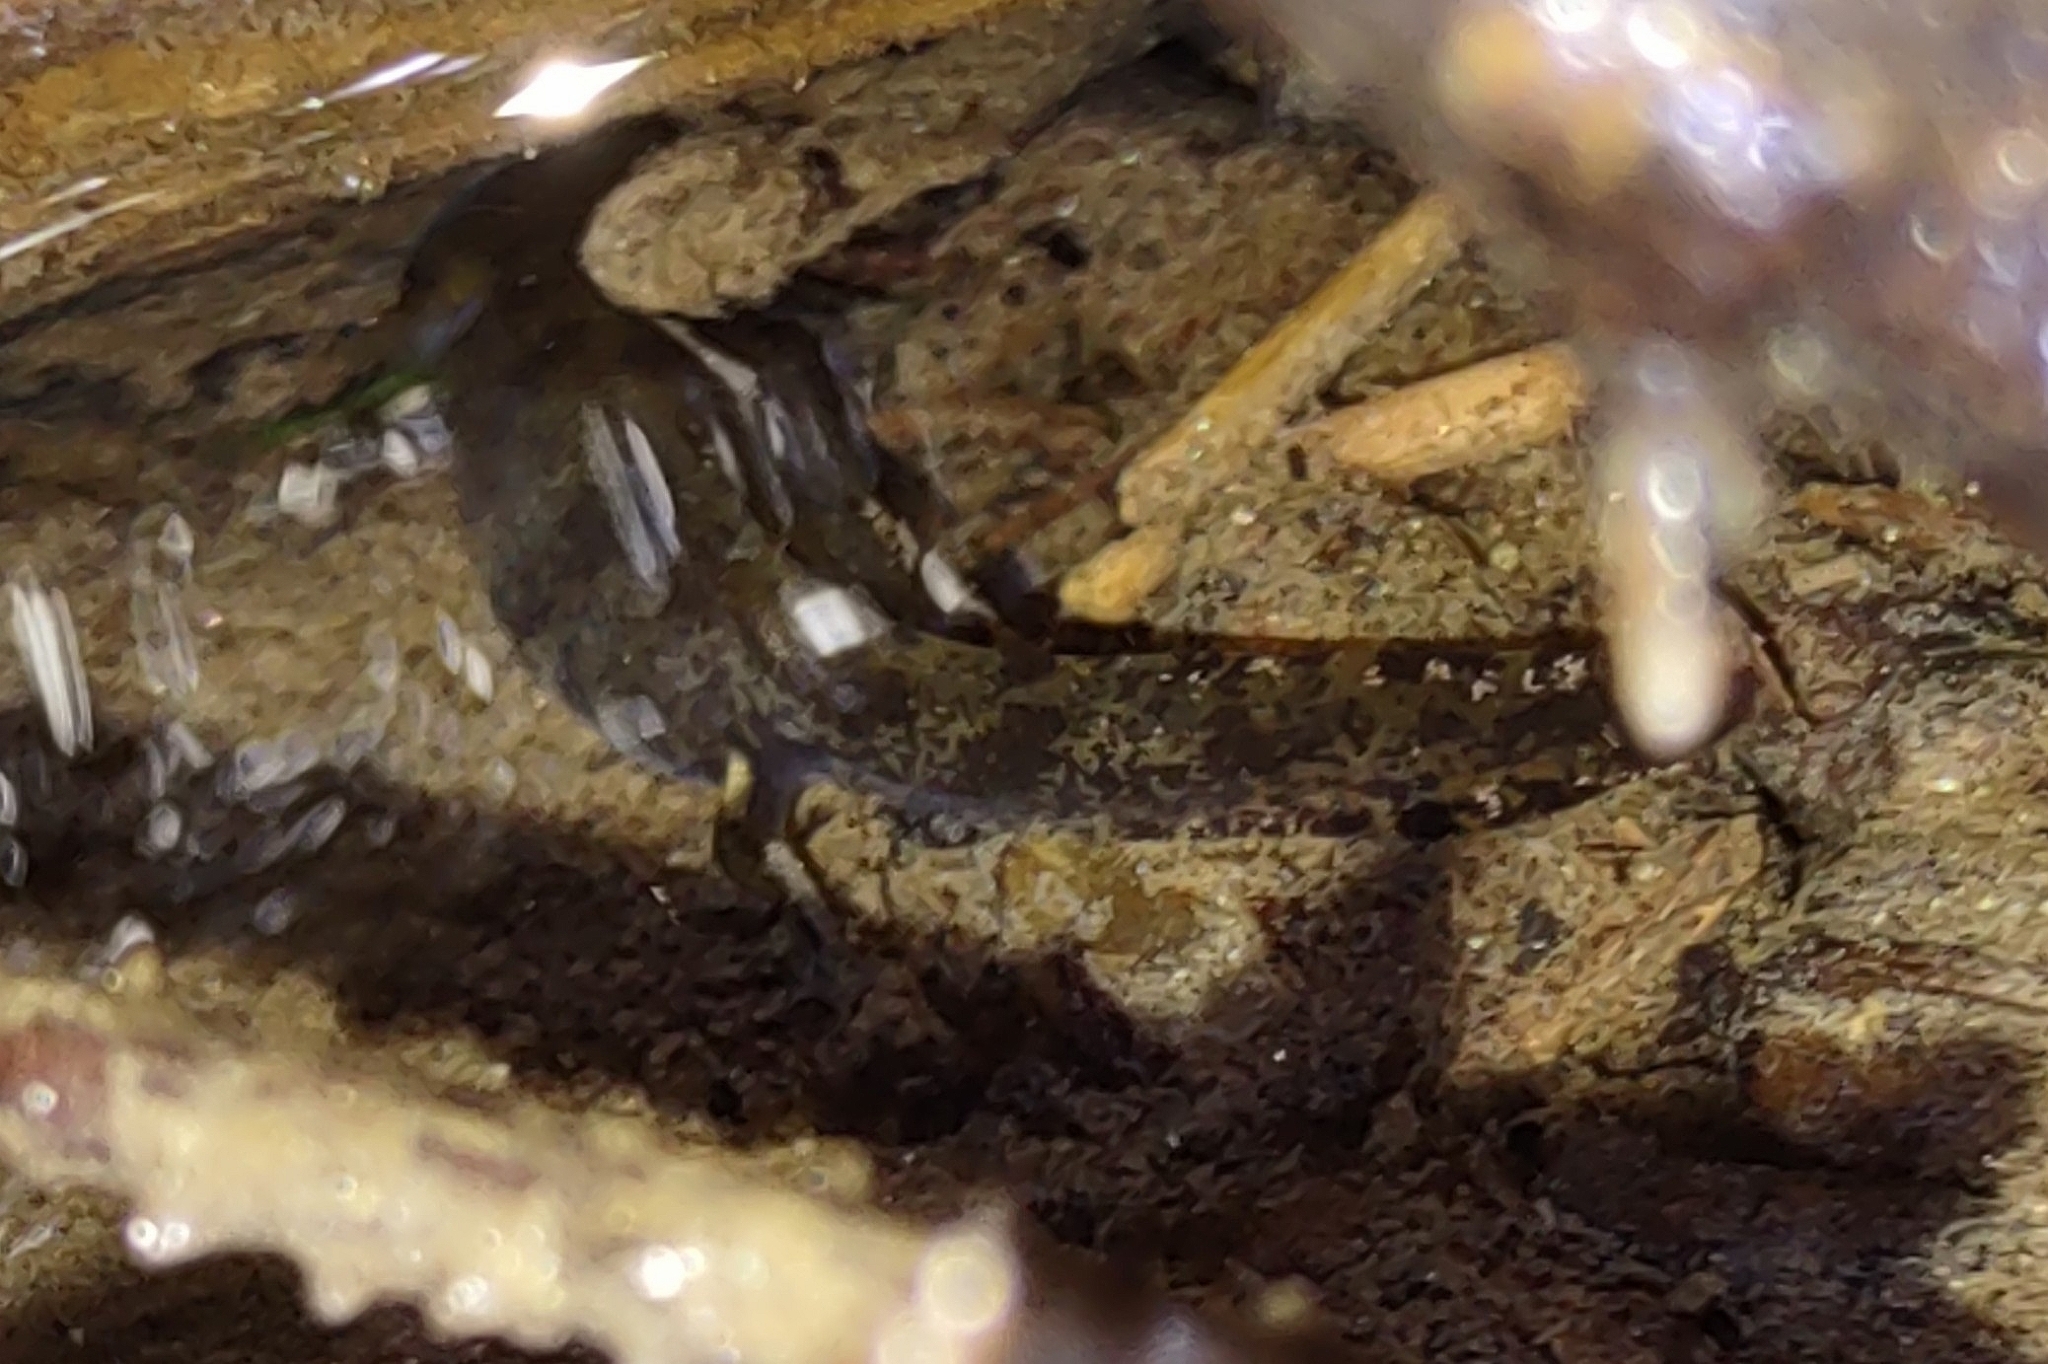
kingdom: Animalia
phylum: Chordata
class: Amphibia
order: Caudata
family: Salamandridae
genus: Salamandra
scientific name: Salamandra salamandra
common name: Fire salamander
